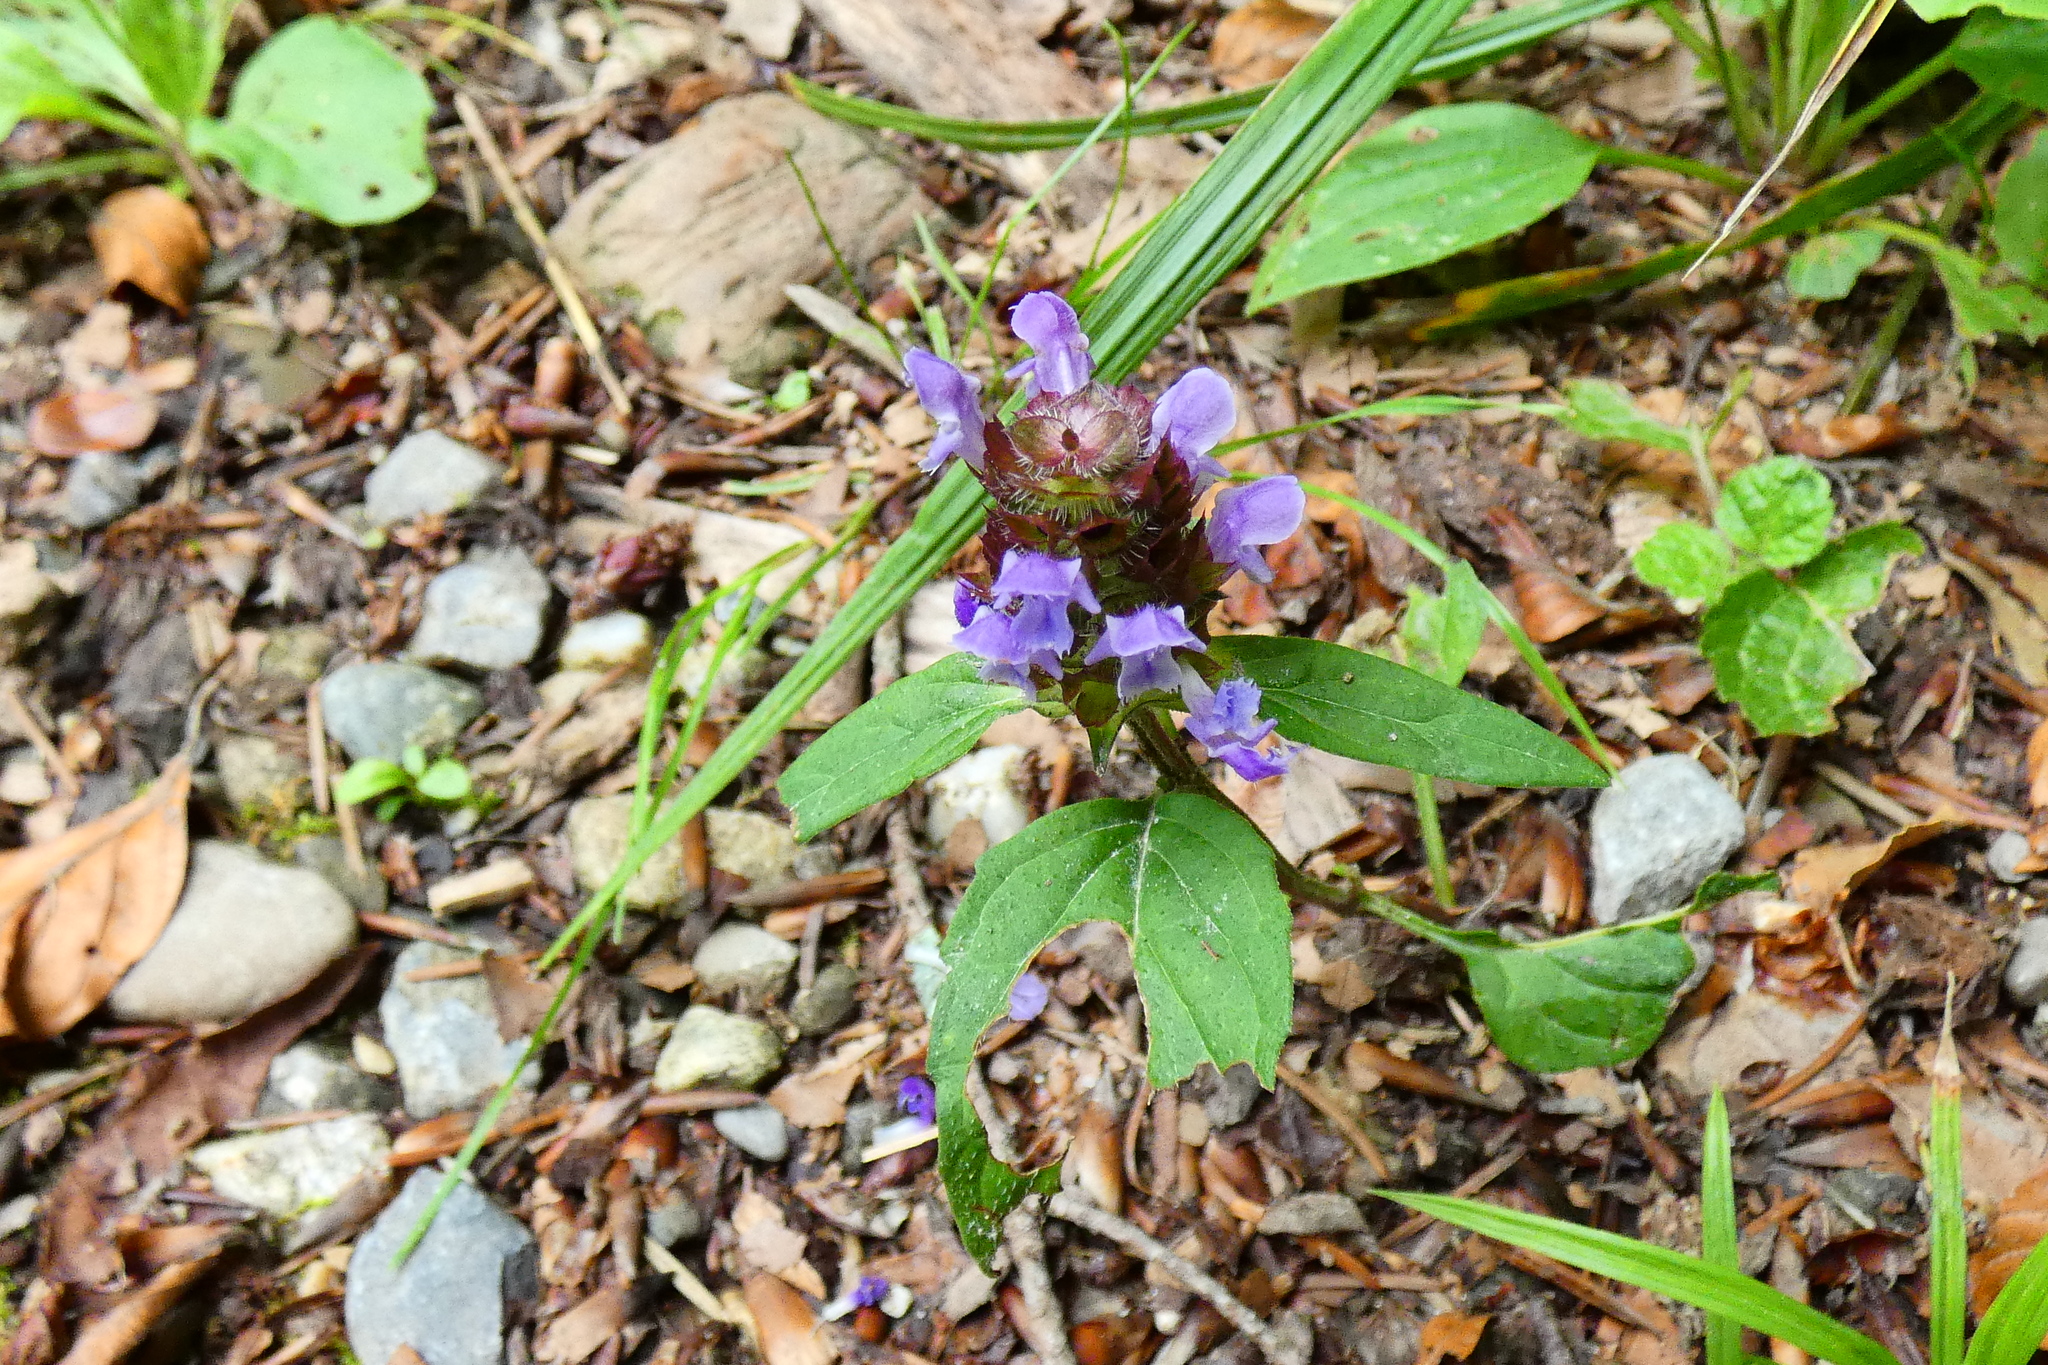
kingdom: Plantae
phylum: Tracheophyta
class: Magnoliopsida
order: Lamiales
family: Lamiaceae
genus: Prunella
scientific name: Prunella vulgaris
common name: Heal-all
